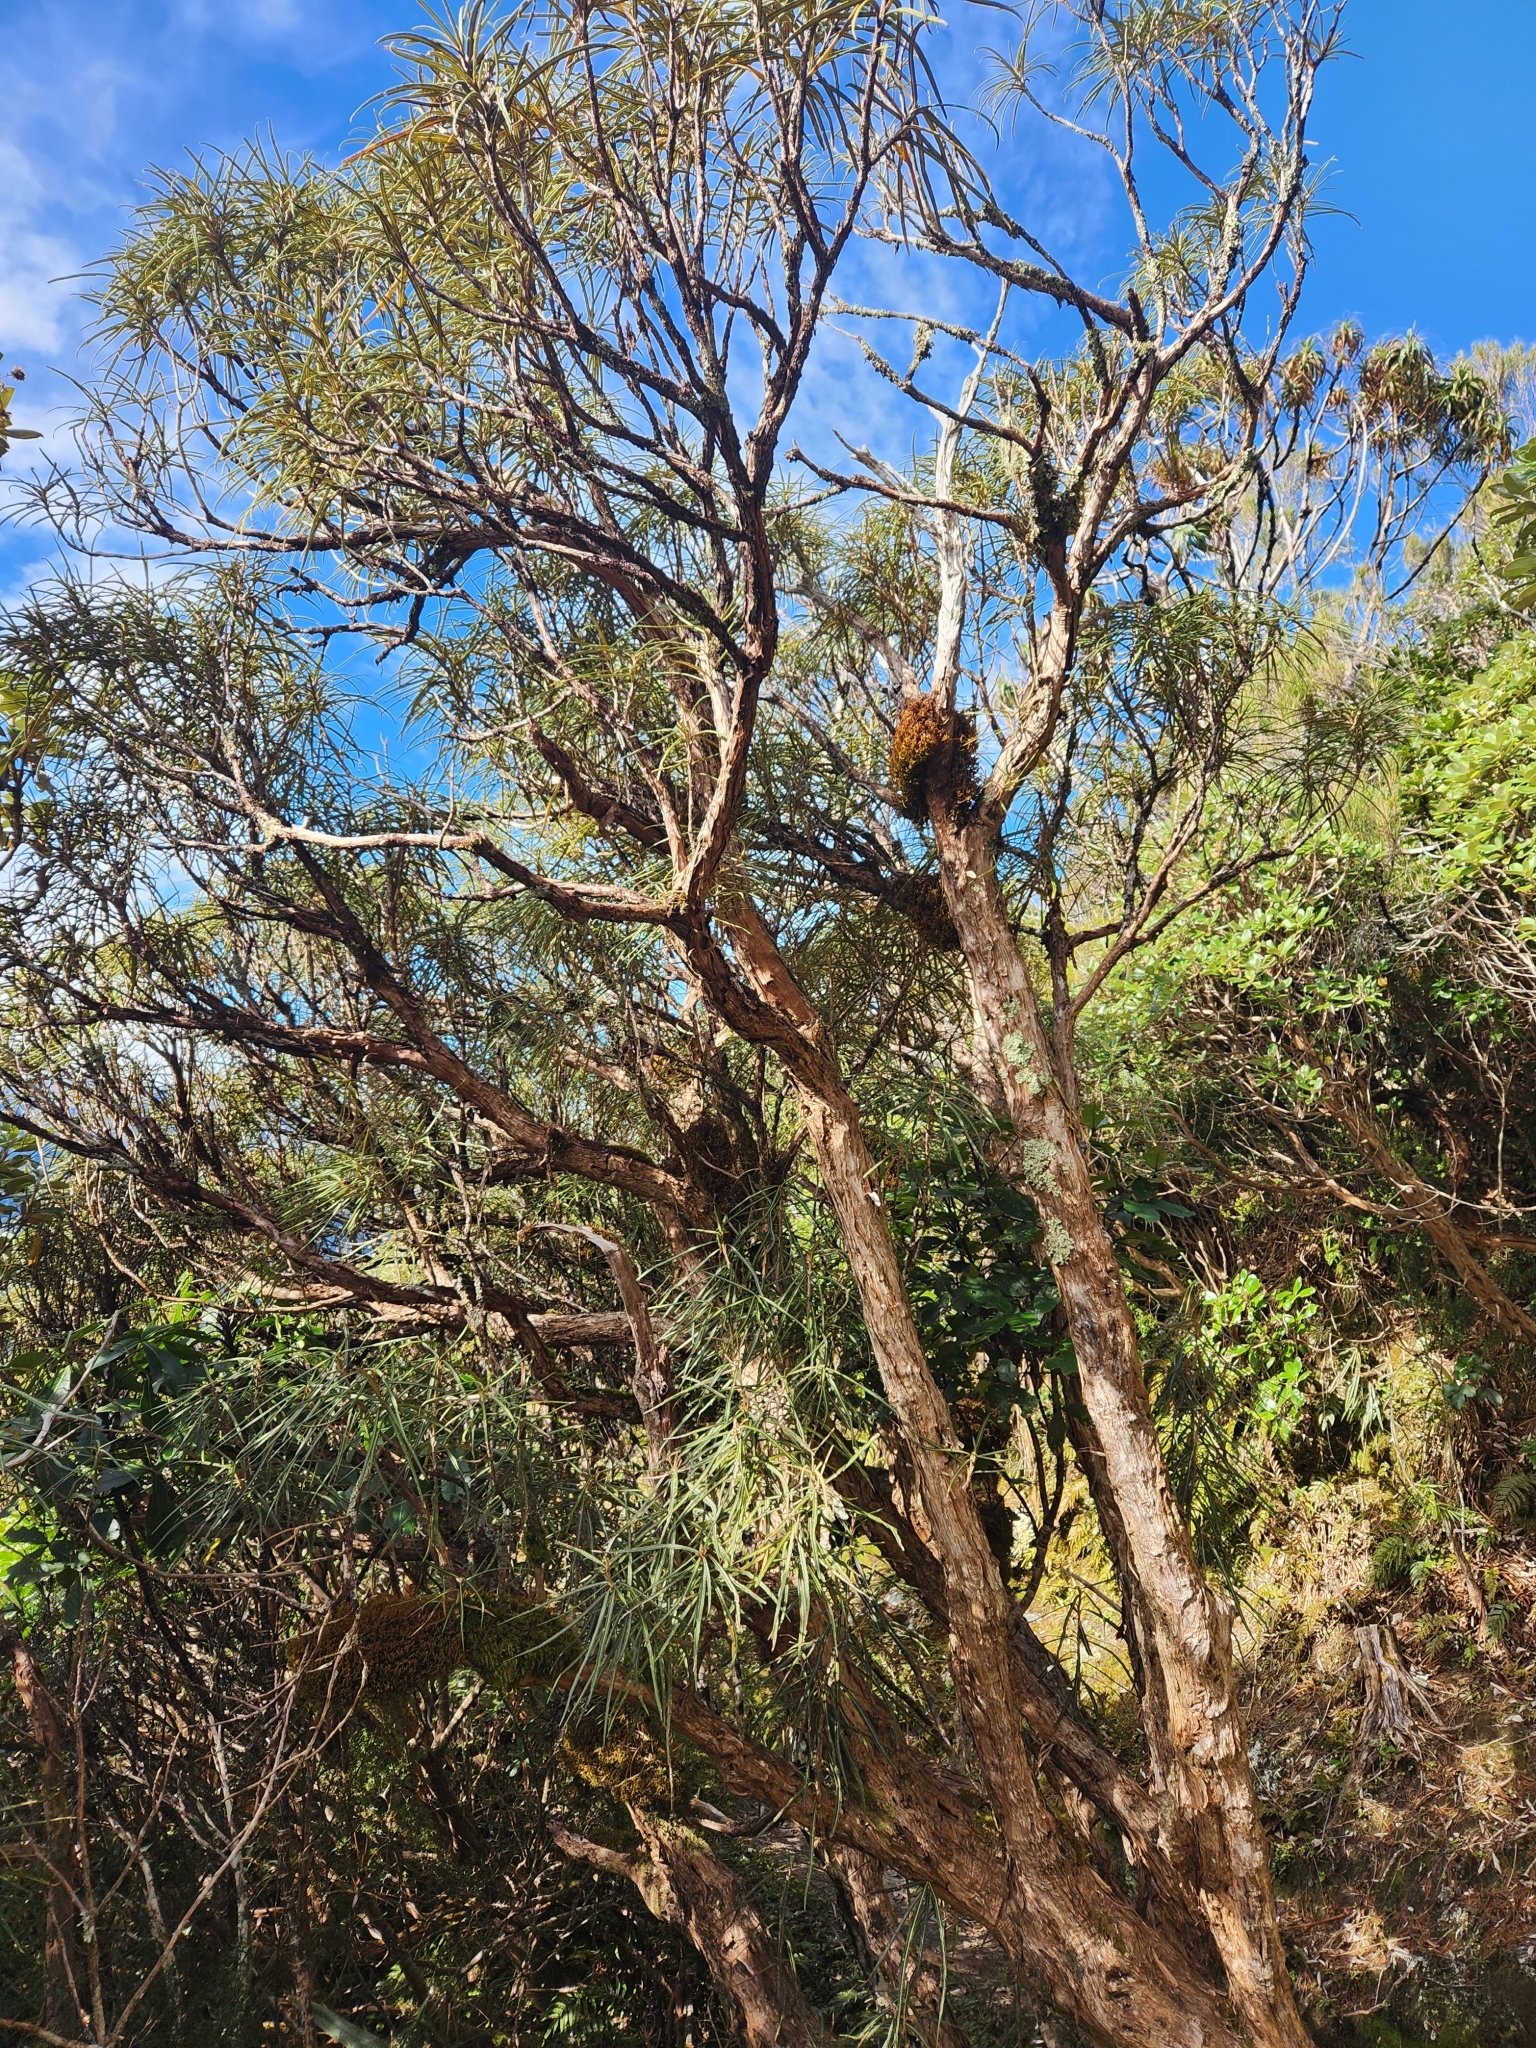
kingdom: Plantae
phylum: Tracheophyta
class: Magnoliopsida
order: Asterales
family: Asteraceae
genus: Olearia
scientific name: Olearia lacunosa
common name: Lancewood tree daisy
